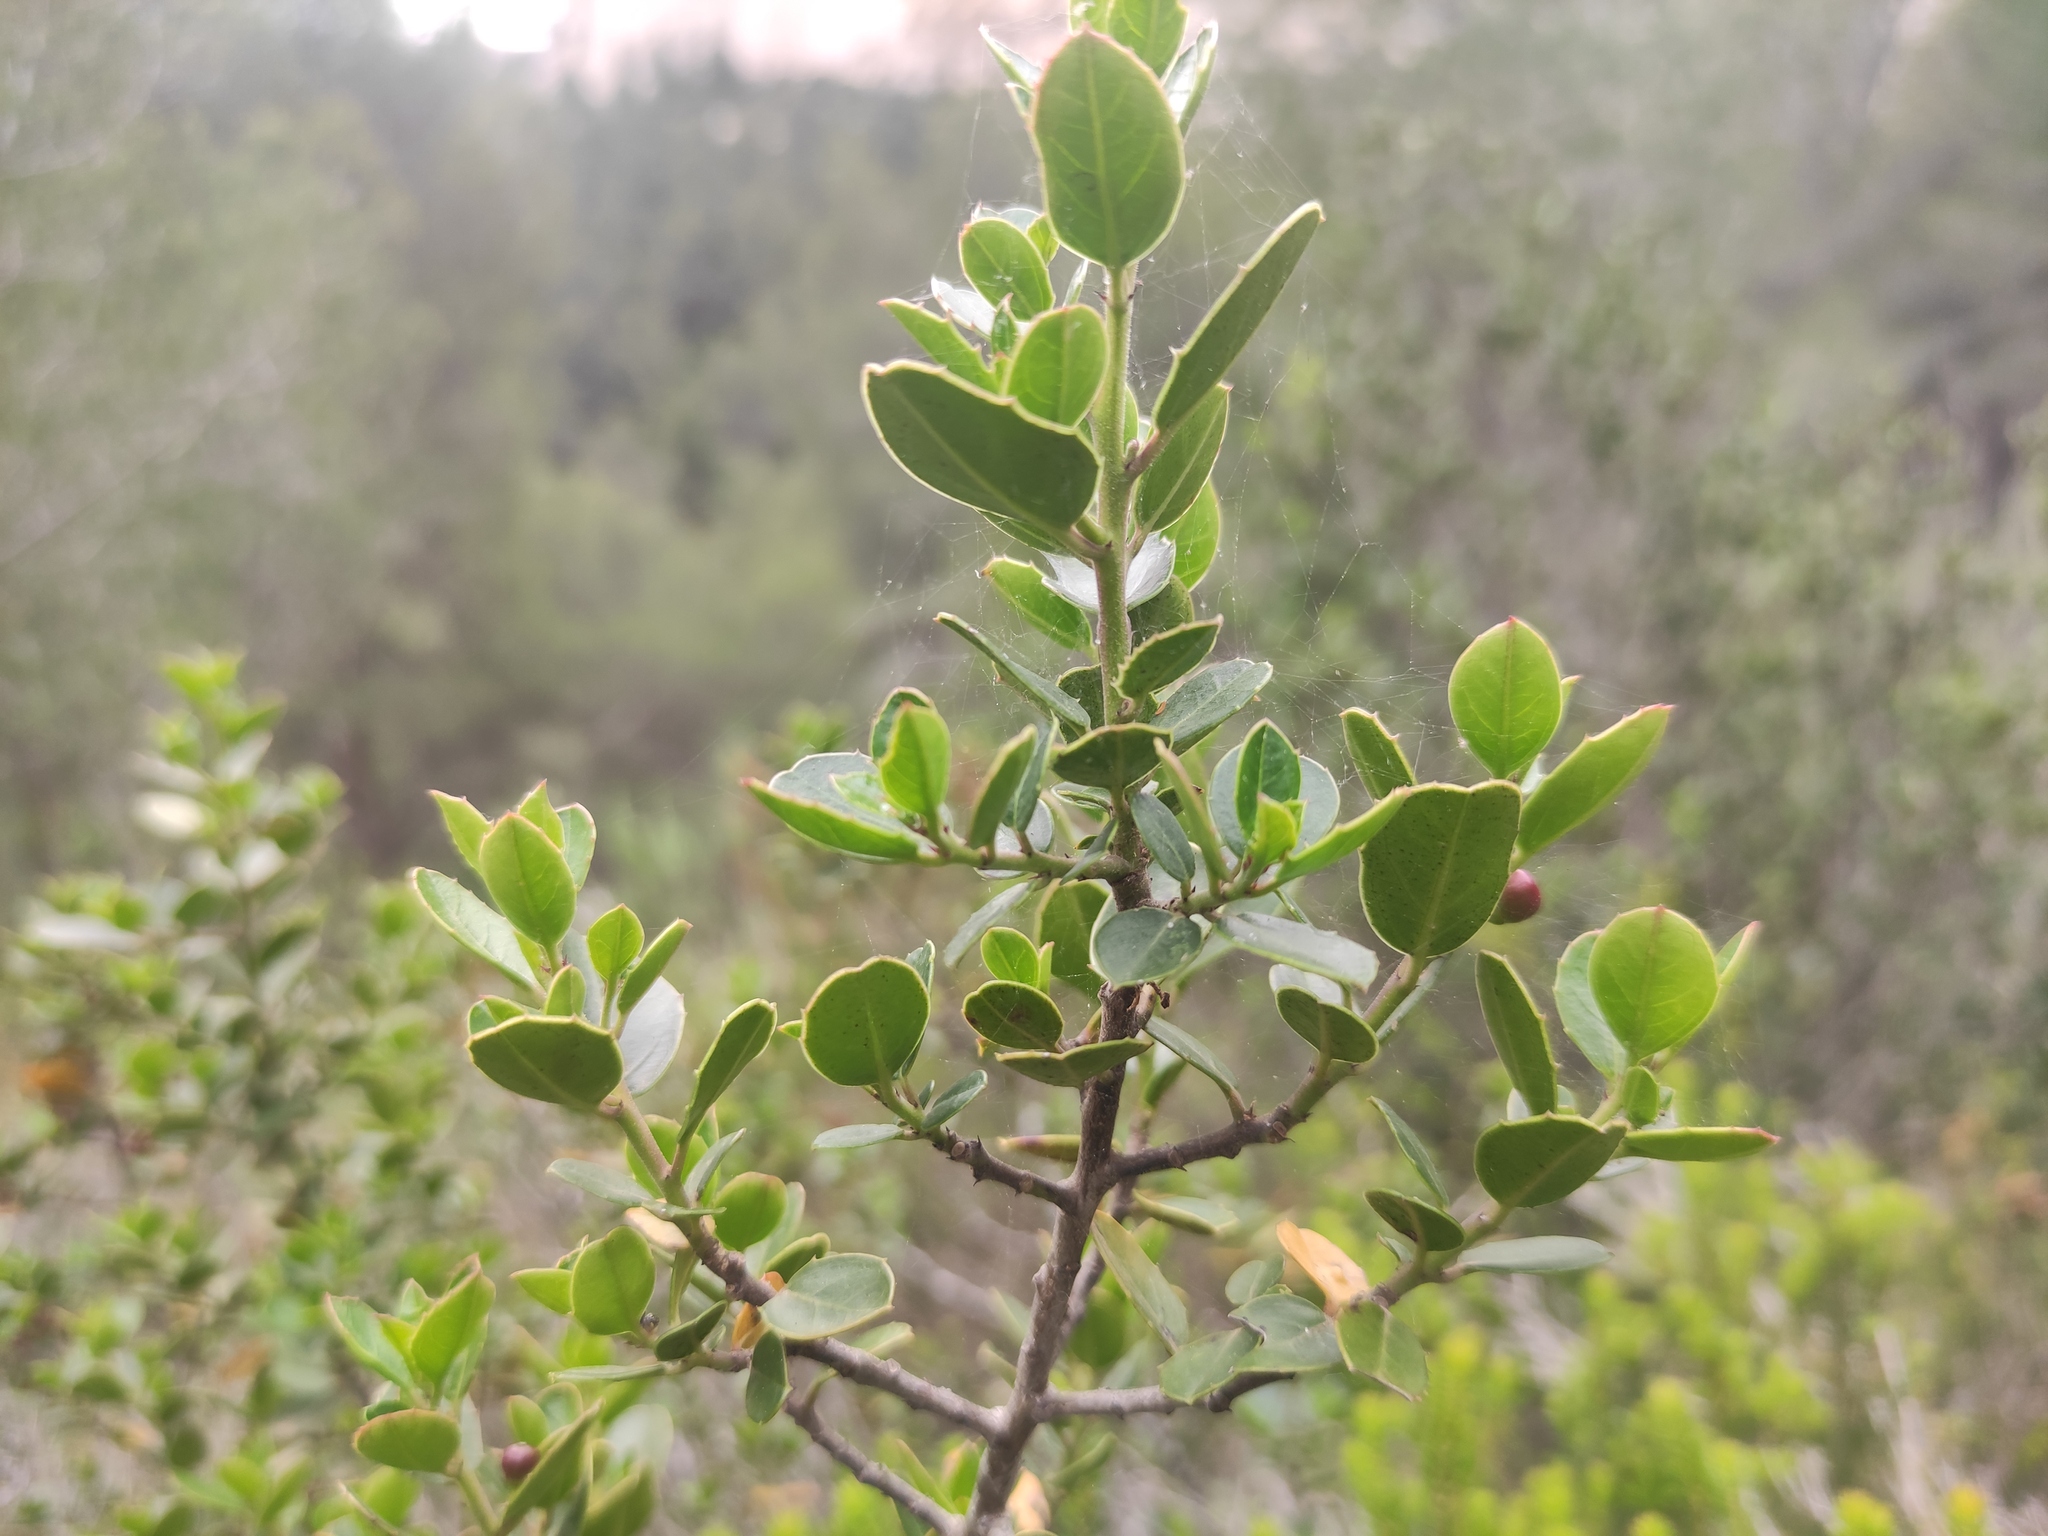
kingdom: Plantae
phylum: Tracheophyta
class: Magnoliopsida
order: Rosales
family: Rhamnaceae
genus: Rhamnus
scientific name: Rhamnus alaternus
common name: Mediterranean buckthorn
